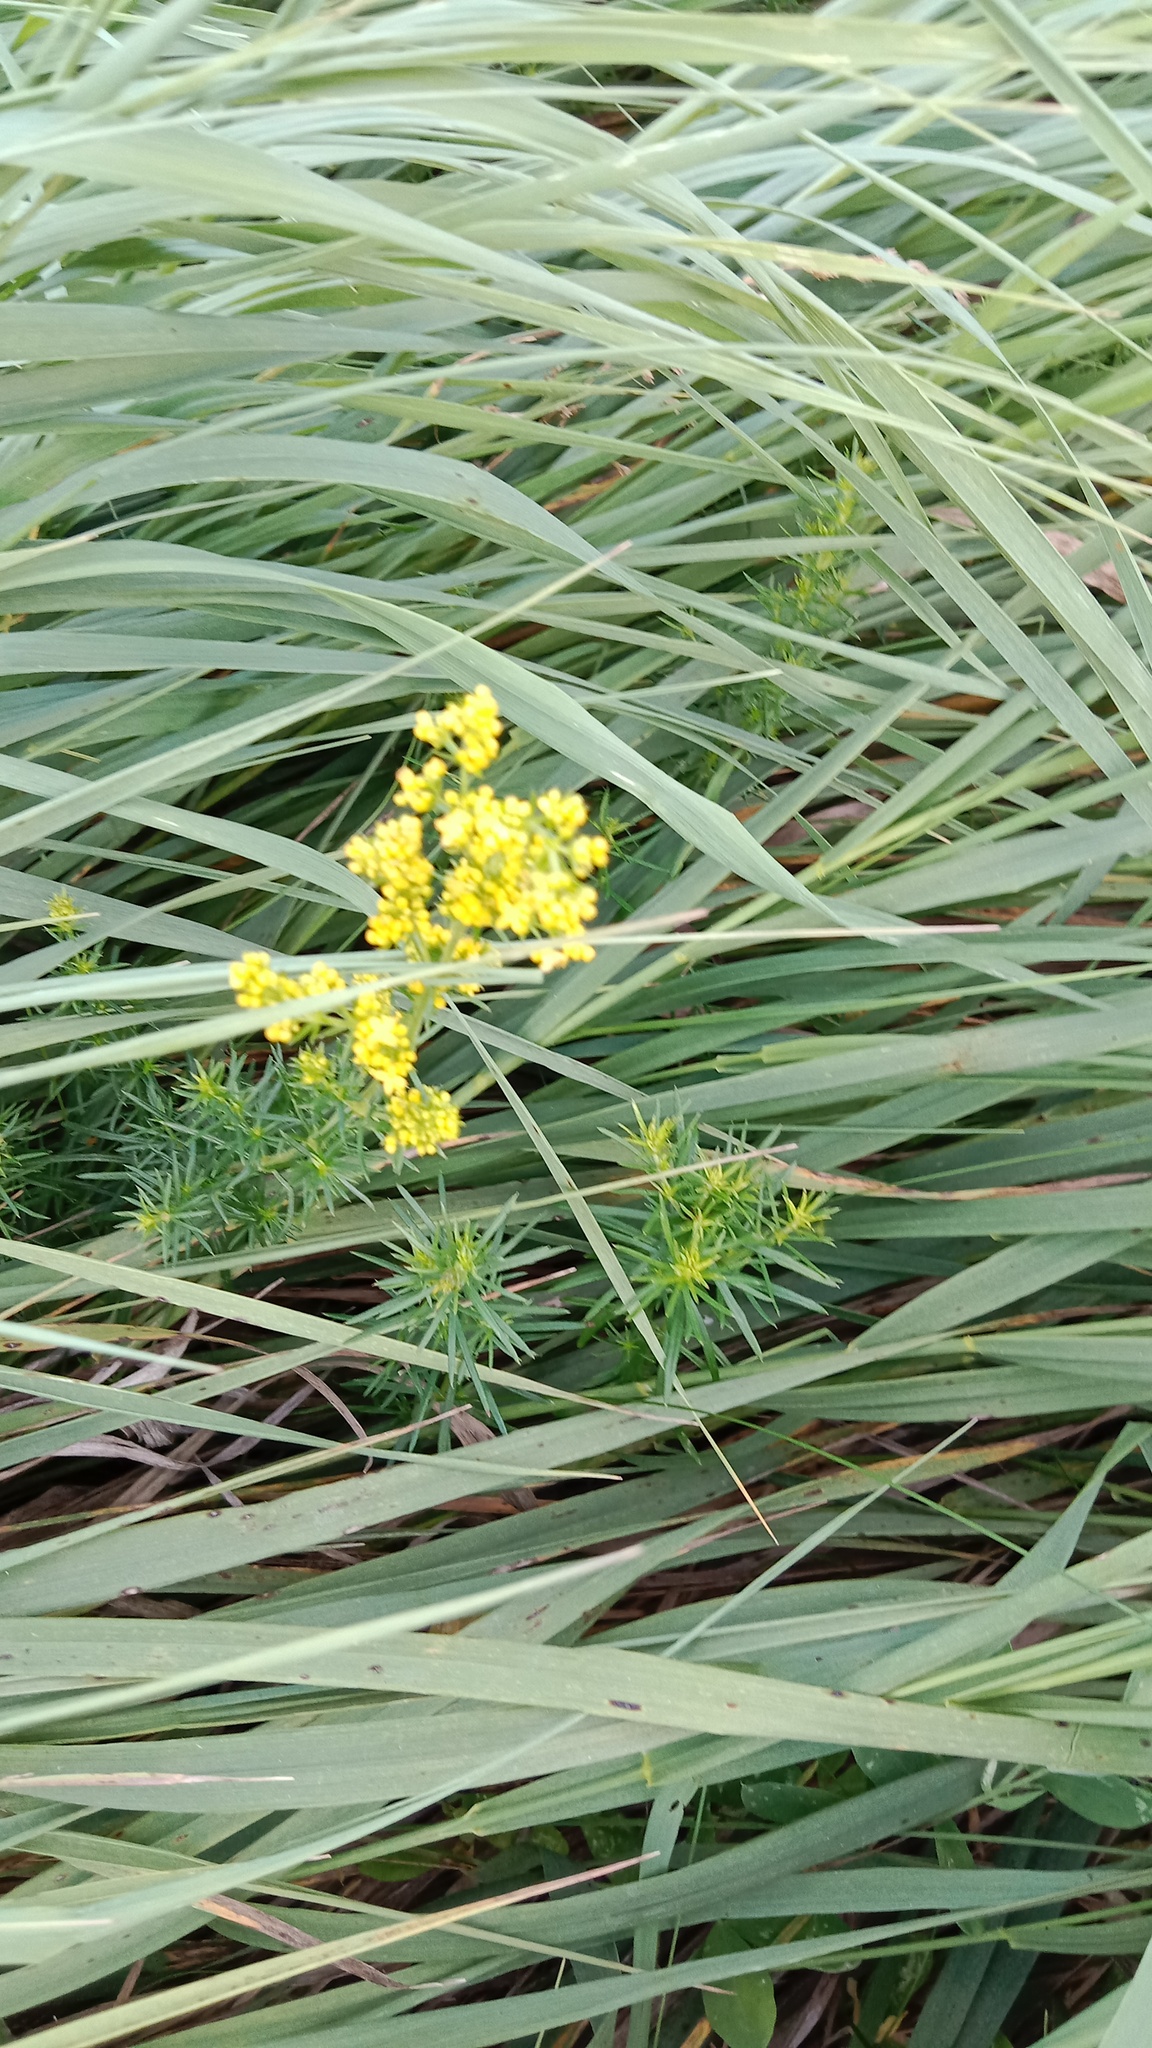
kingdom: Plantae
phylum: Tracheophyta
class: Magnoliopsida
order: Gentianales
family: Rubiaceae
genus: Galium
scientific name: Galium verum
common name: Lady's bedstraw
